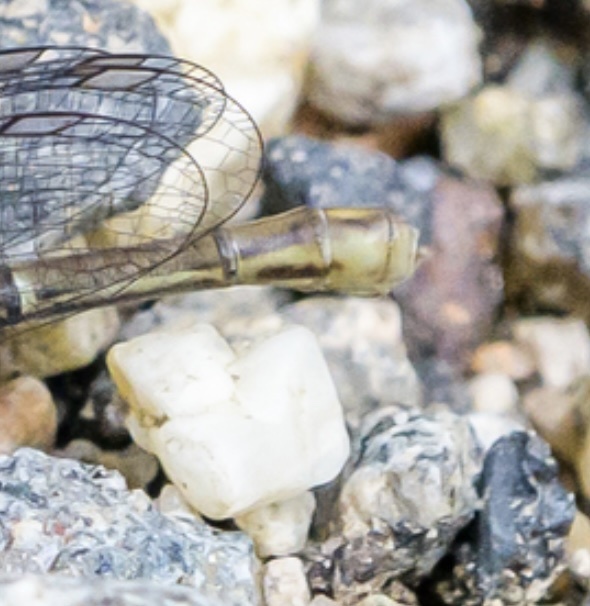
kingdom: Animalia
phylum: Arthropoda
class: Insecta
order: Odonata
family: Coenagrionidae
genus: Argia
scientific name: Argia moesta
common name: Powdered dancer
